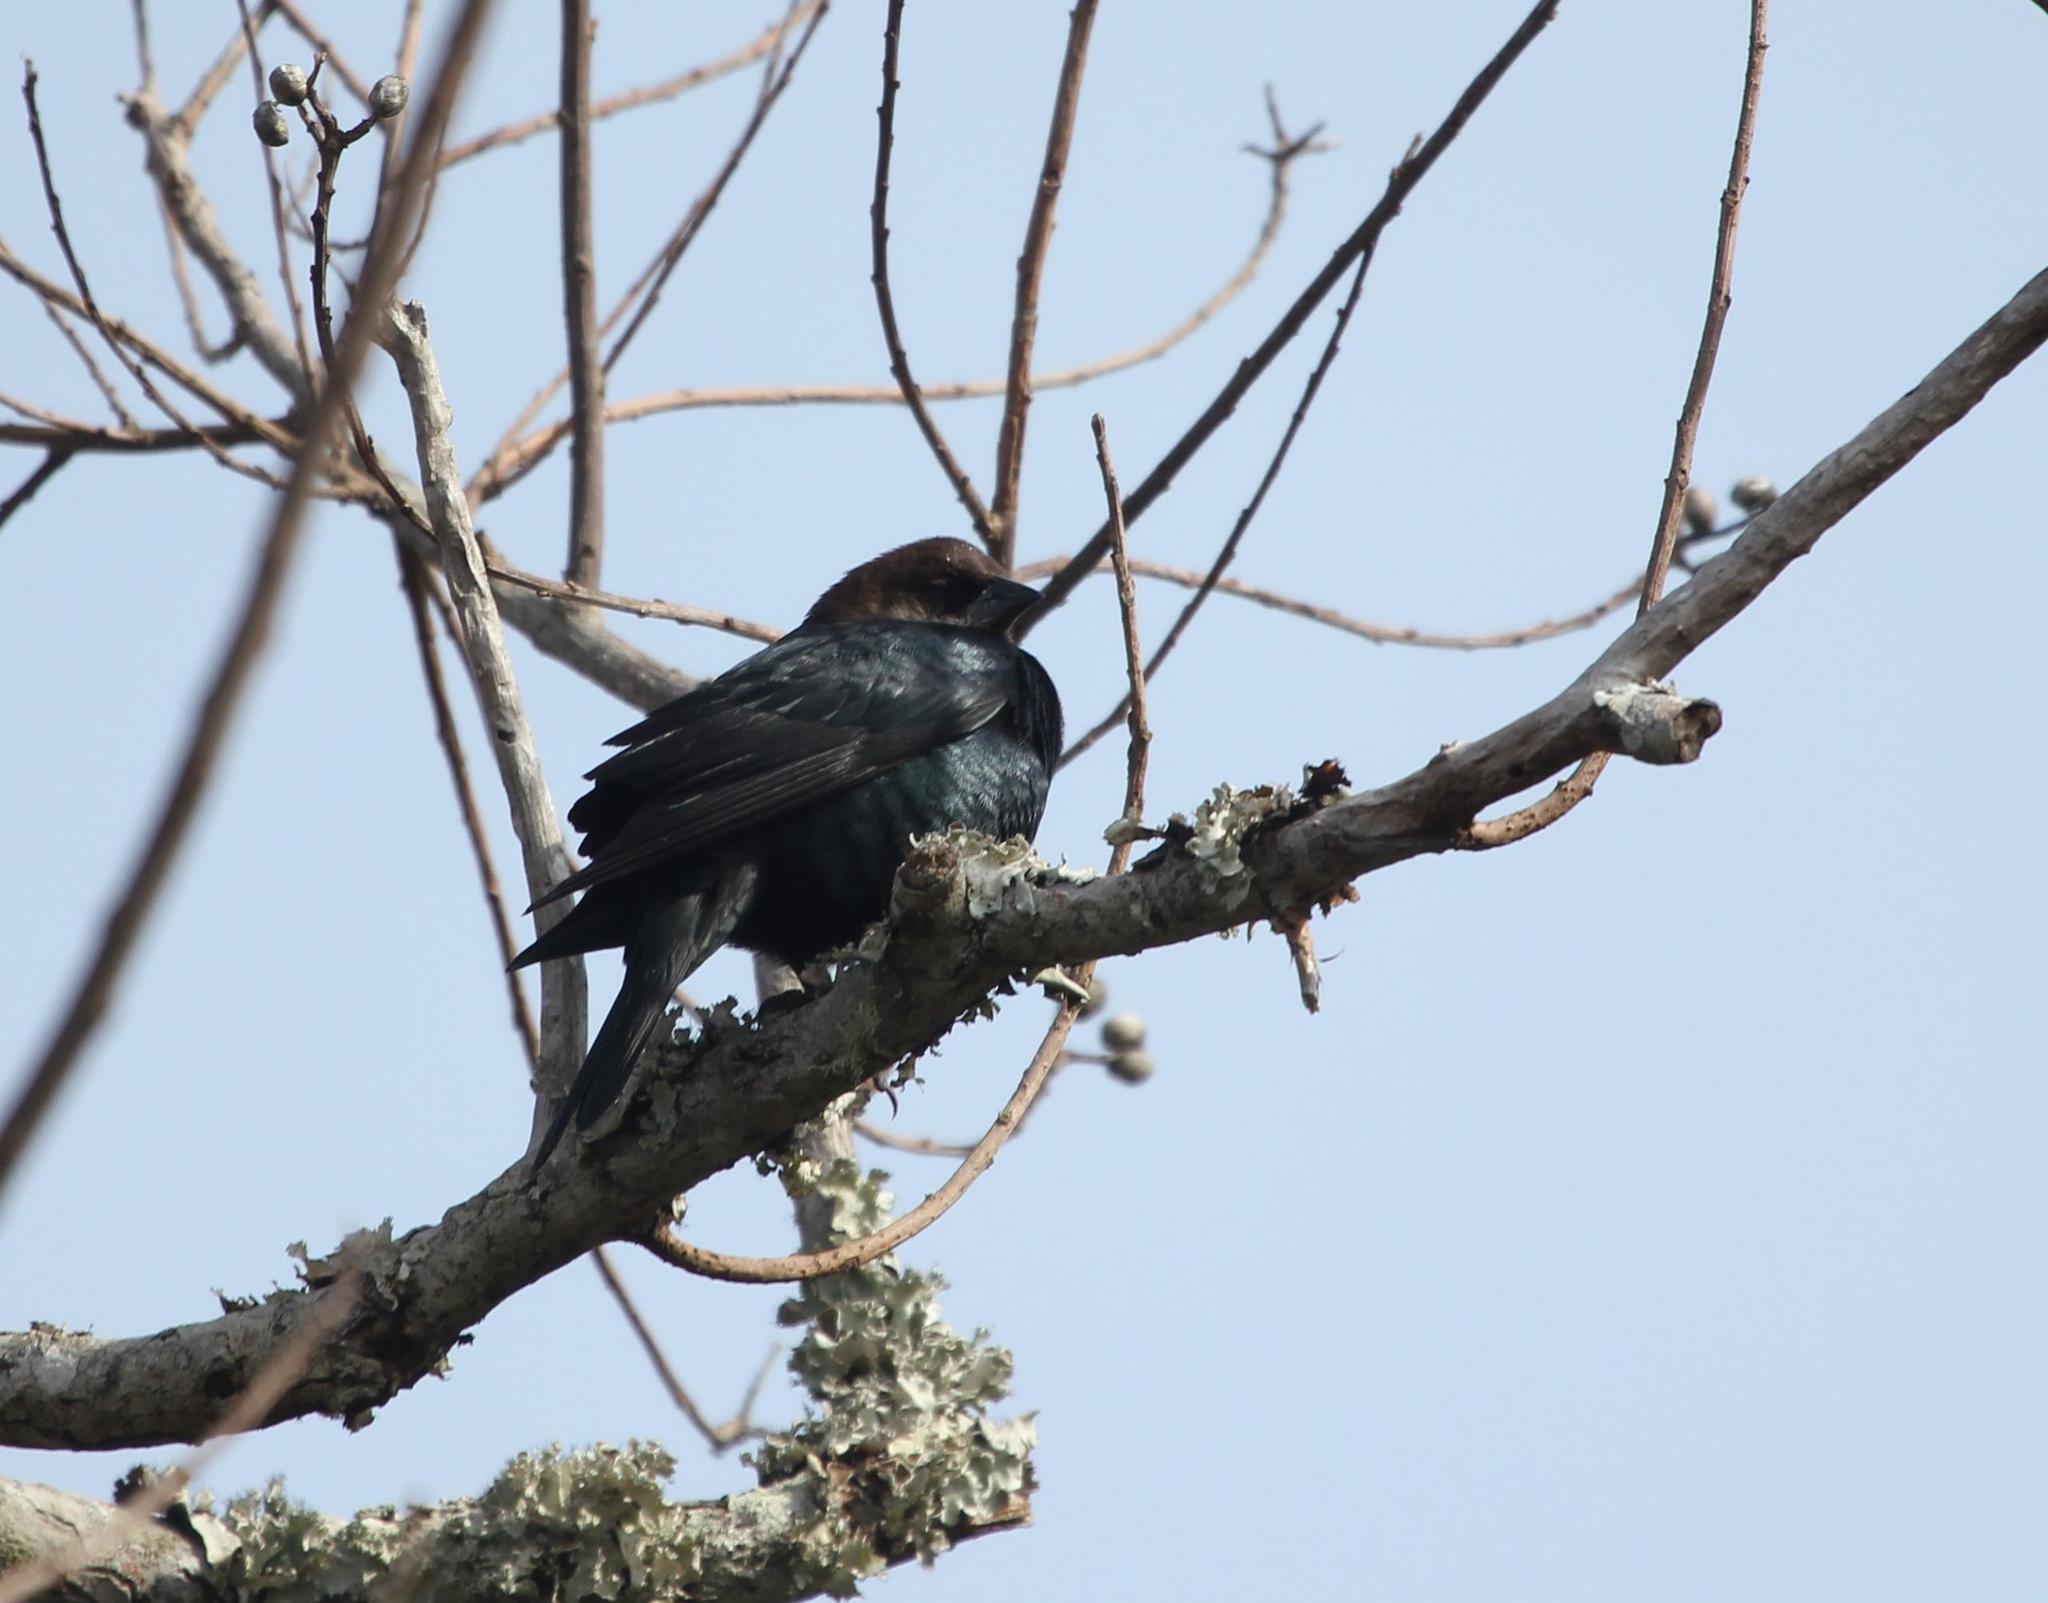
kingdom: Animalia
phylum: Chordata
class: Aves
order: Passeriformes
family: Icteridae
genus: Molothrus
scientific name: Molothrus ater
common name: Brown-headed cowbird
